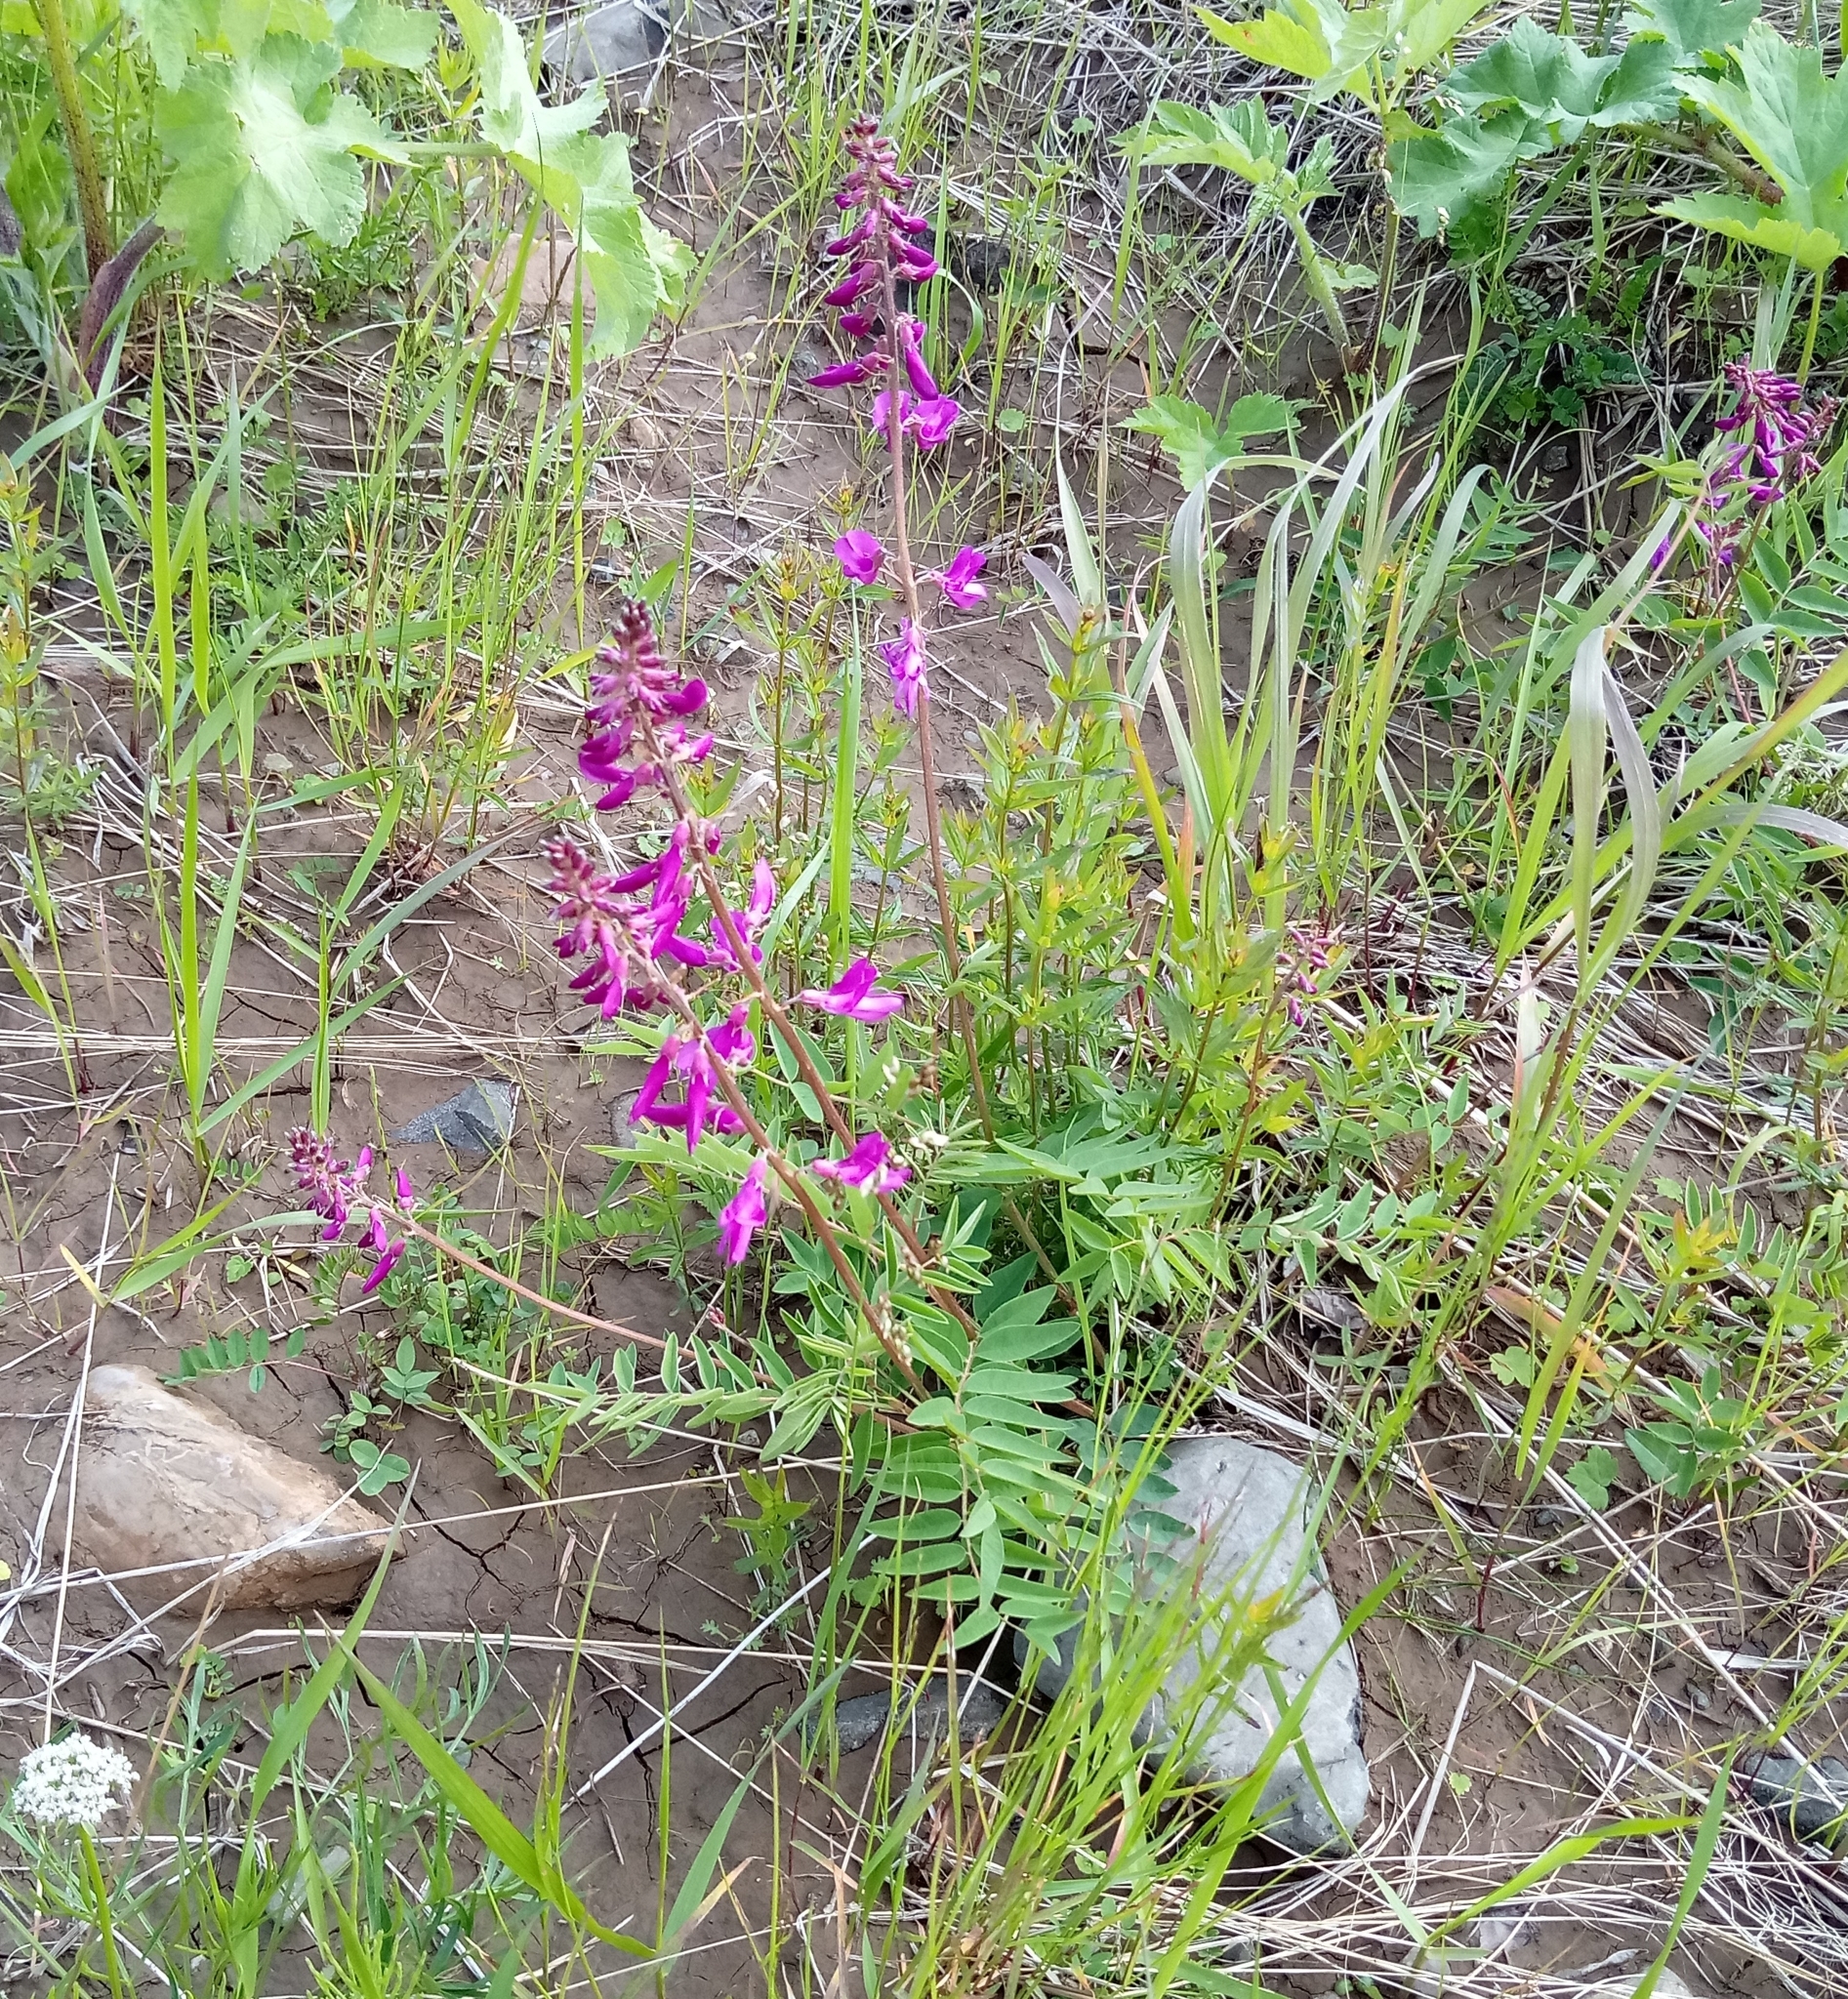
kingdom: Plantae
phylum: Tracheophyta
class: Magnoliopsida
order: Fabales
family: Fabaceae
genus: Hedysarum
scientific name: Hedysarum hedysaroides
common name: Alpine french-honeysuckle
